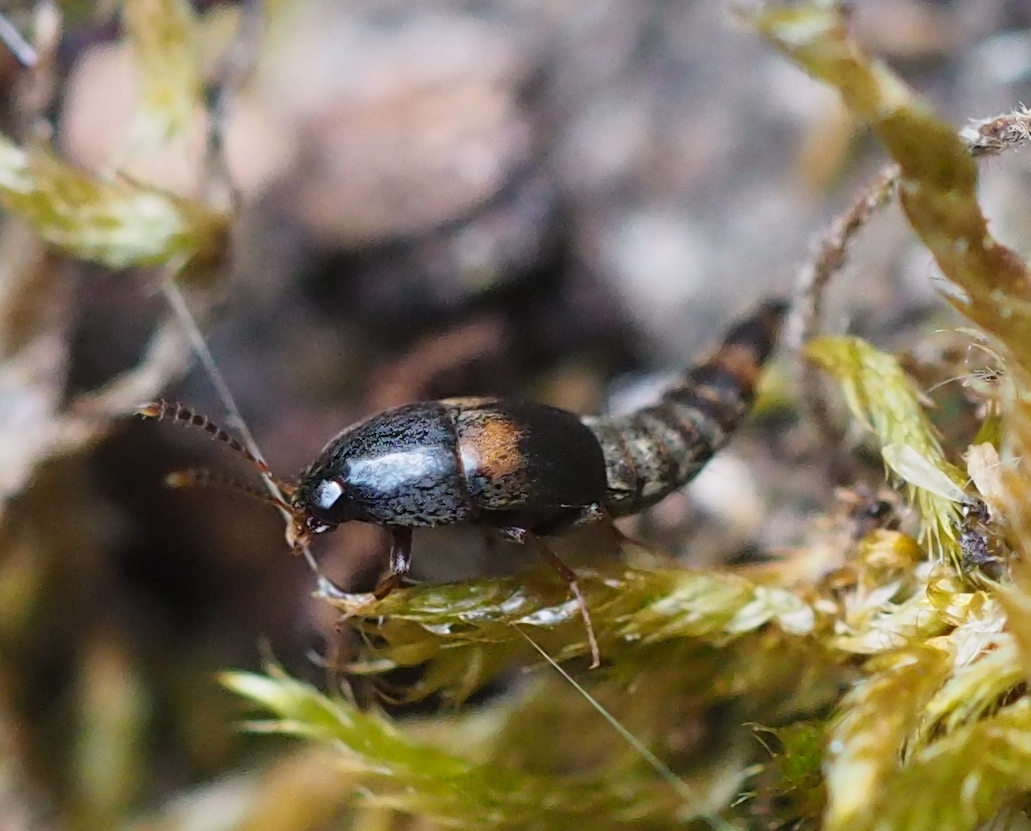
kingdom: Animalia
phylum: Arthropoda
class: Insecta
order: Coleoptera
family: Staphylinidae
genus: Sepedophilus
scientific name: Sepedophilus bipustulatus
